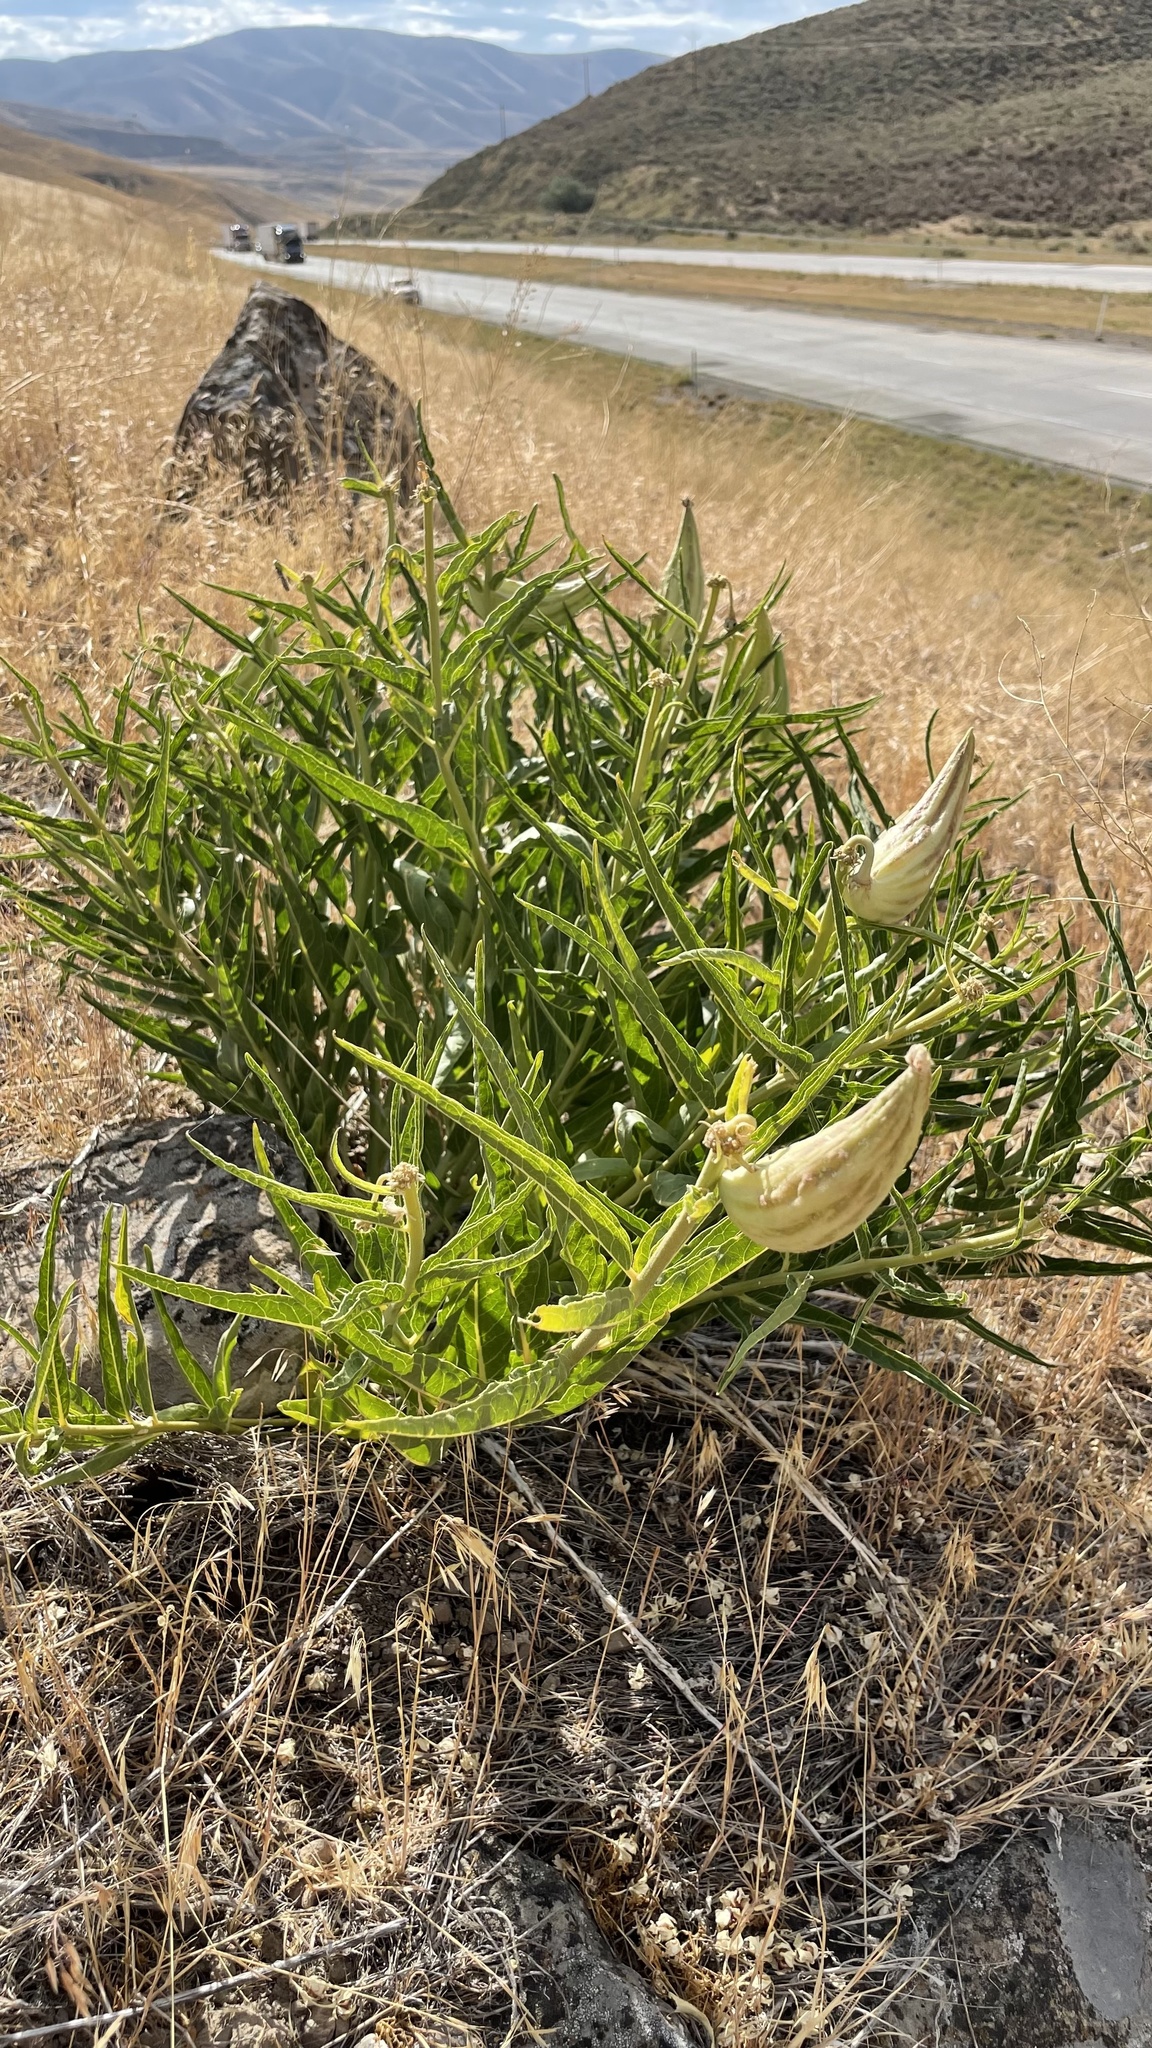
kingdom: Plantae
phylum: Tracheophyta
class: Magnoliopsida
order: Gentianales
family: Apocynaceae
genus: Asclepias
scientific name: Asclepias asperula
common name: Antelope horns
